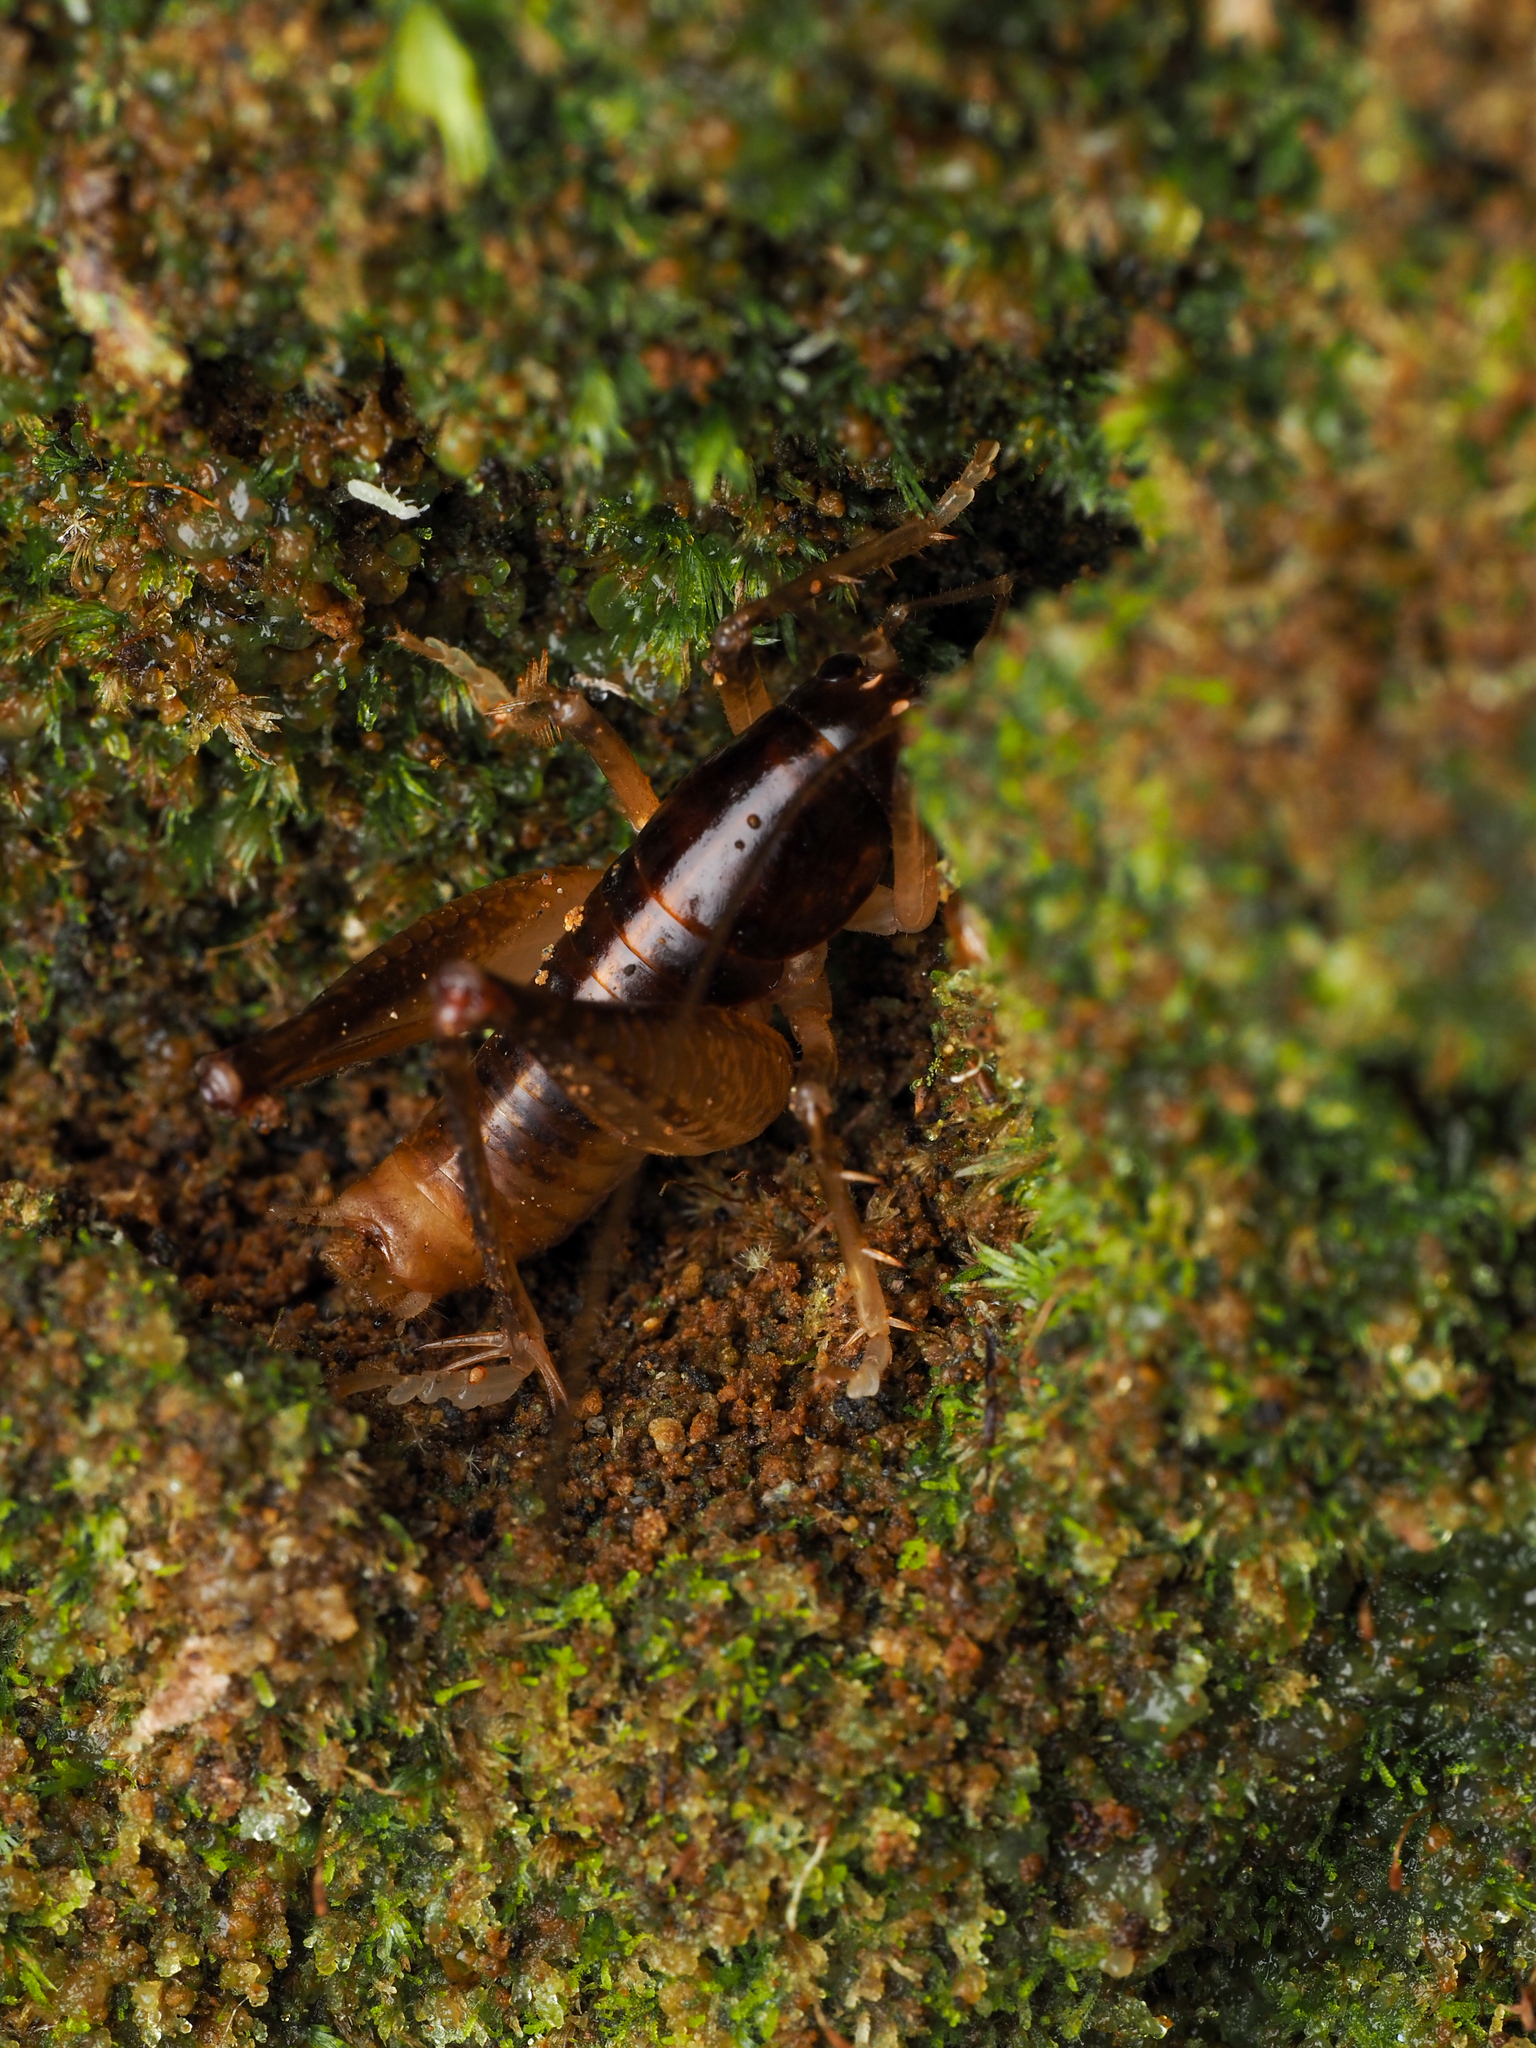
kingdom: Animalia
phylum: Arthropoda
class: Insecta
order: Orthoptera
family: Anostostomatidae
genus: Hemiandrus
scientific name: Hemiandrus brucei
